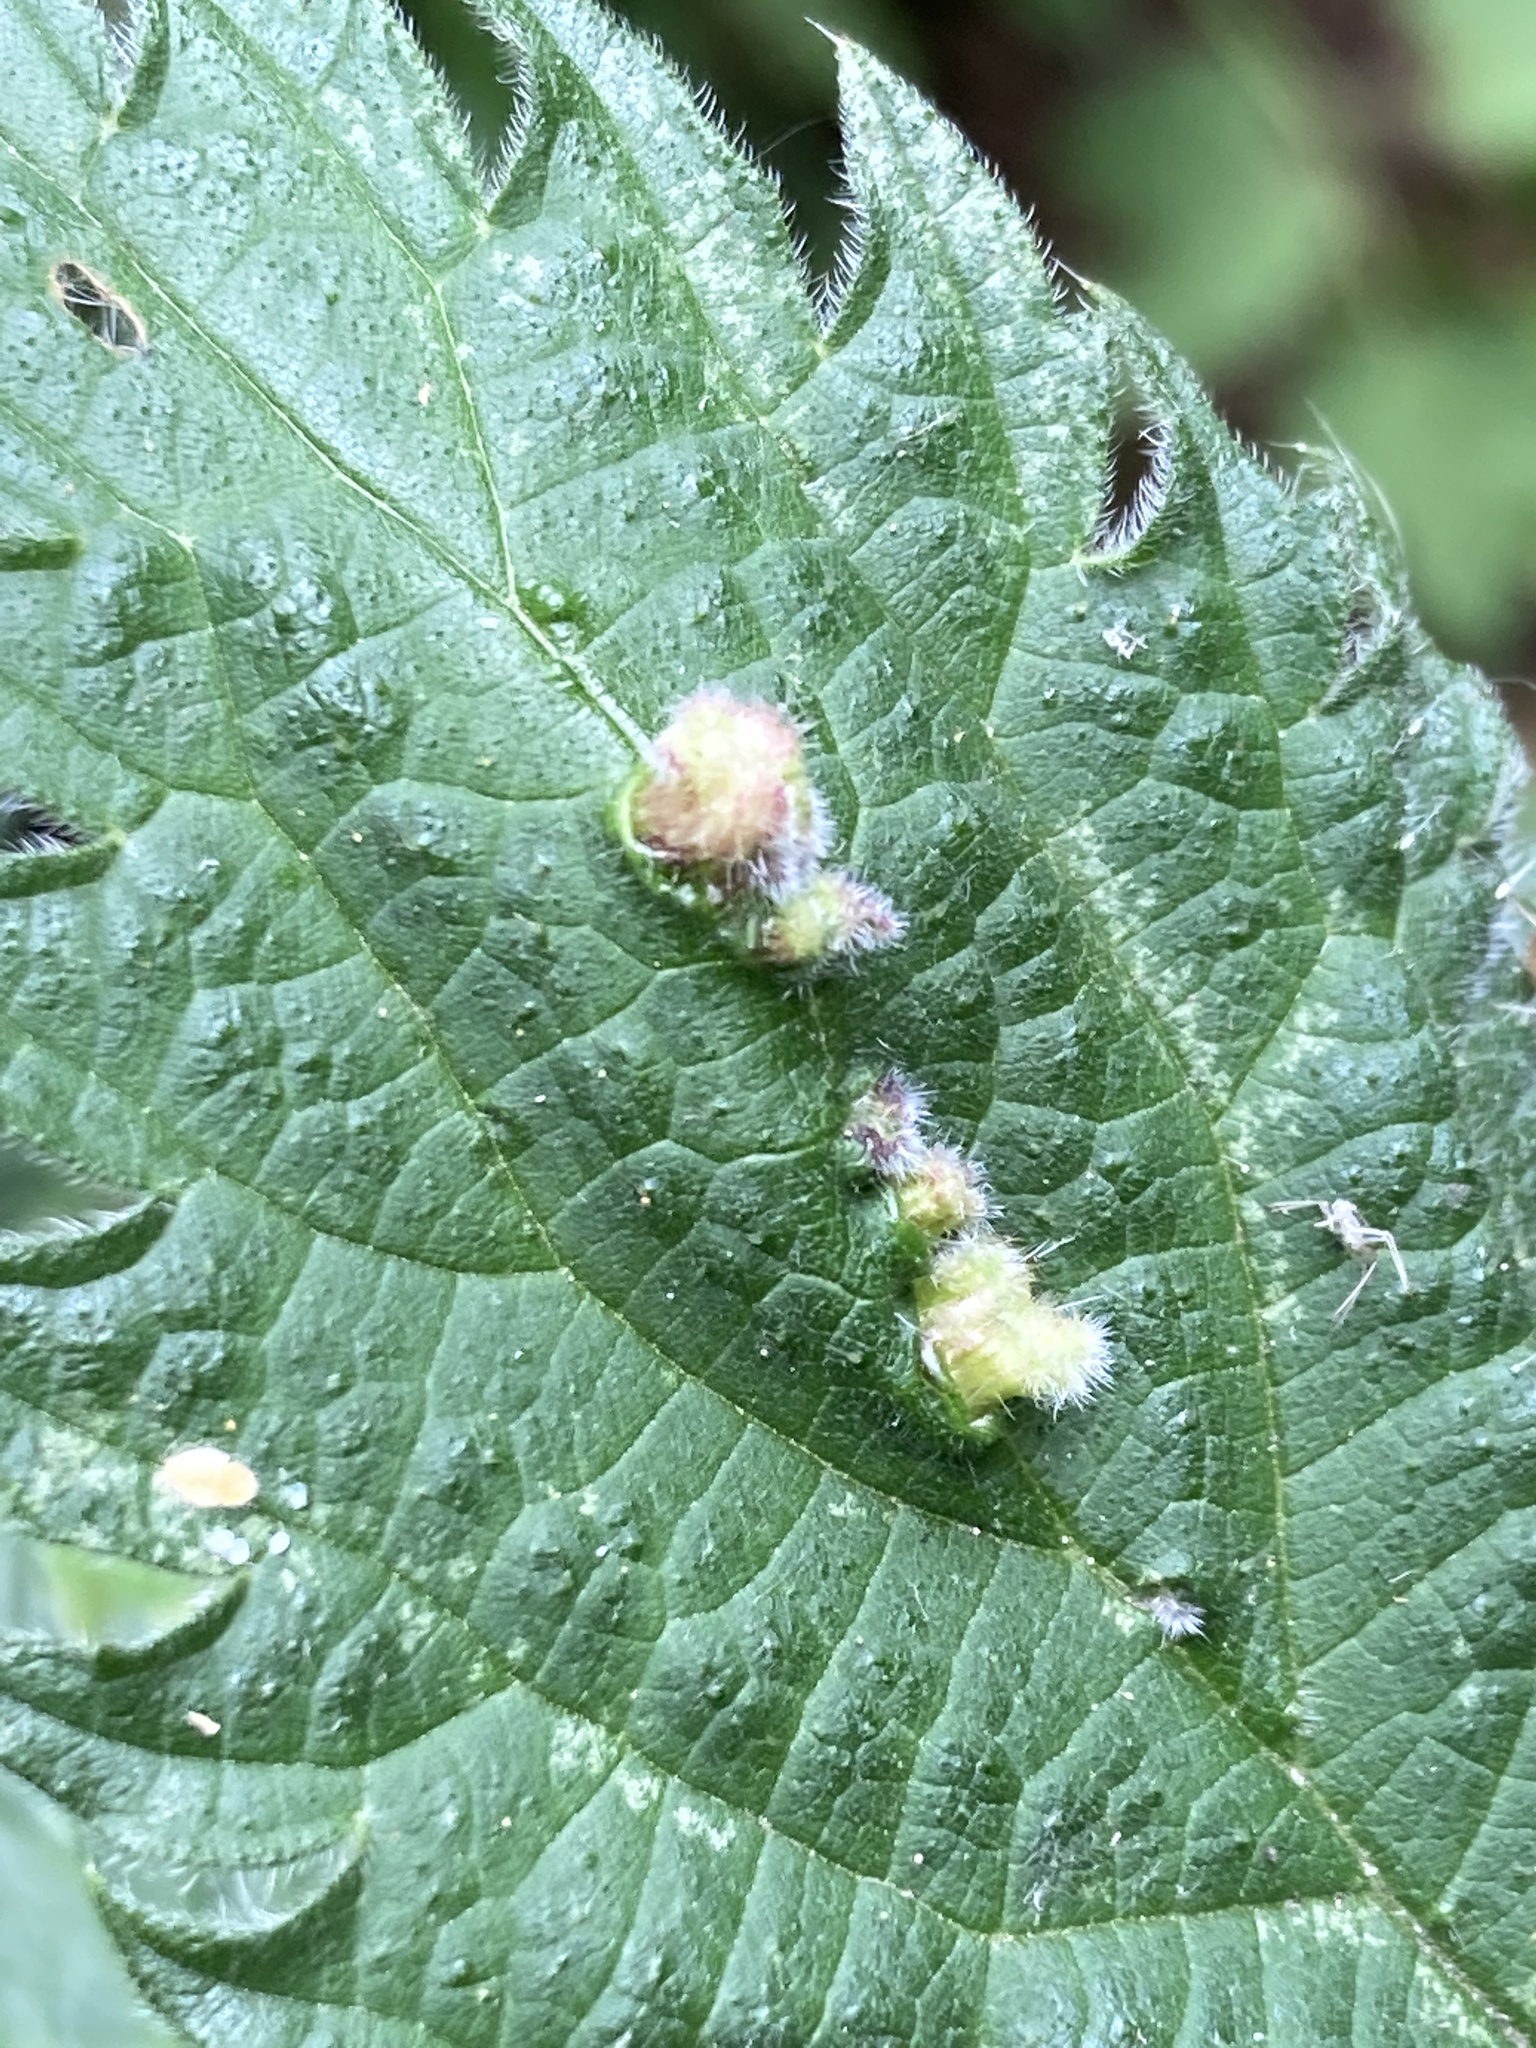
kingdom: Animalia
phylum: Arthropoda
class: Insecta
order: Diptera
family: Cecidomyiidae
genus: Dasineura
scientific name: Dasineura urticae
